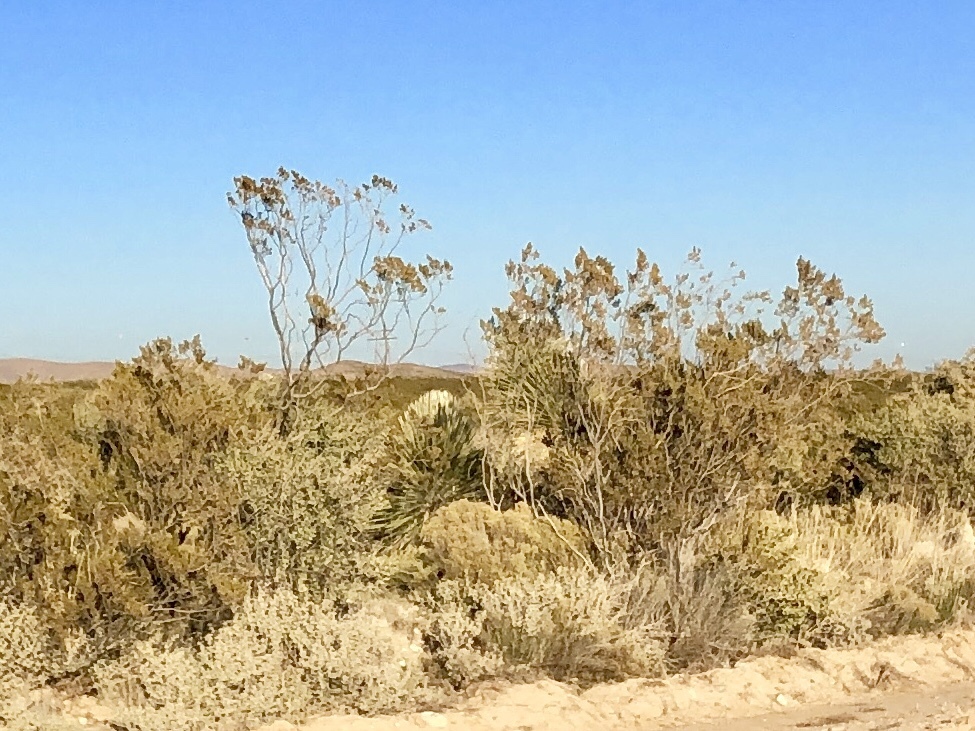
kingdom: Plantae
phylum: Tracheophyta
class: Magnoliopsida
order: Zygophyllales
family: Zygophyllaceae
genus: Larrea
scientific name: Larrea tridentata
